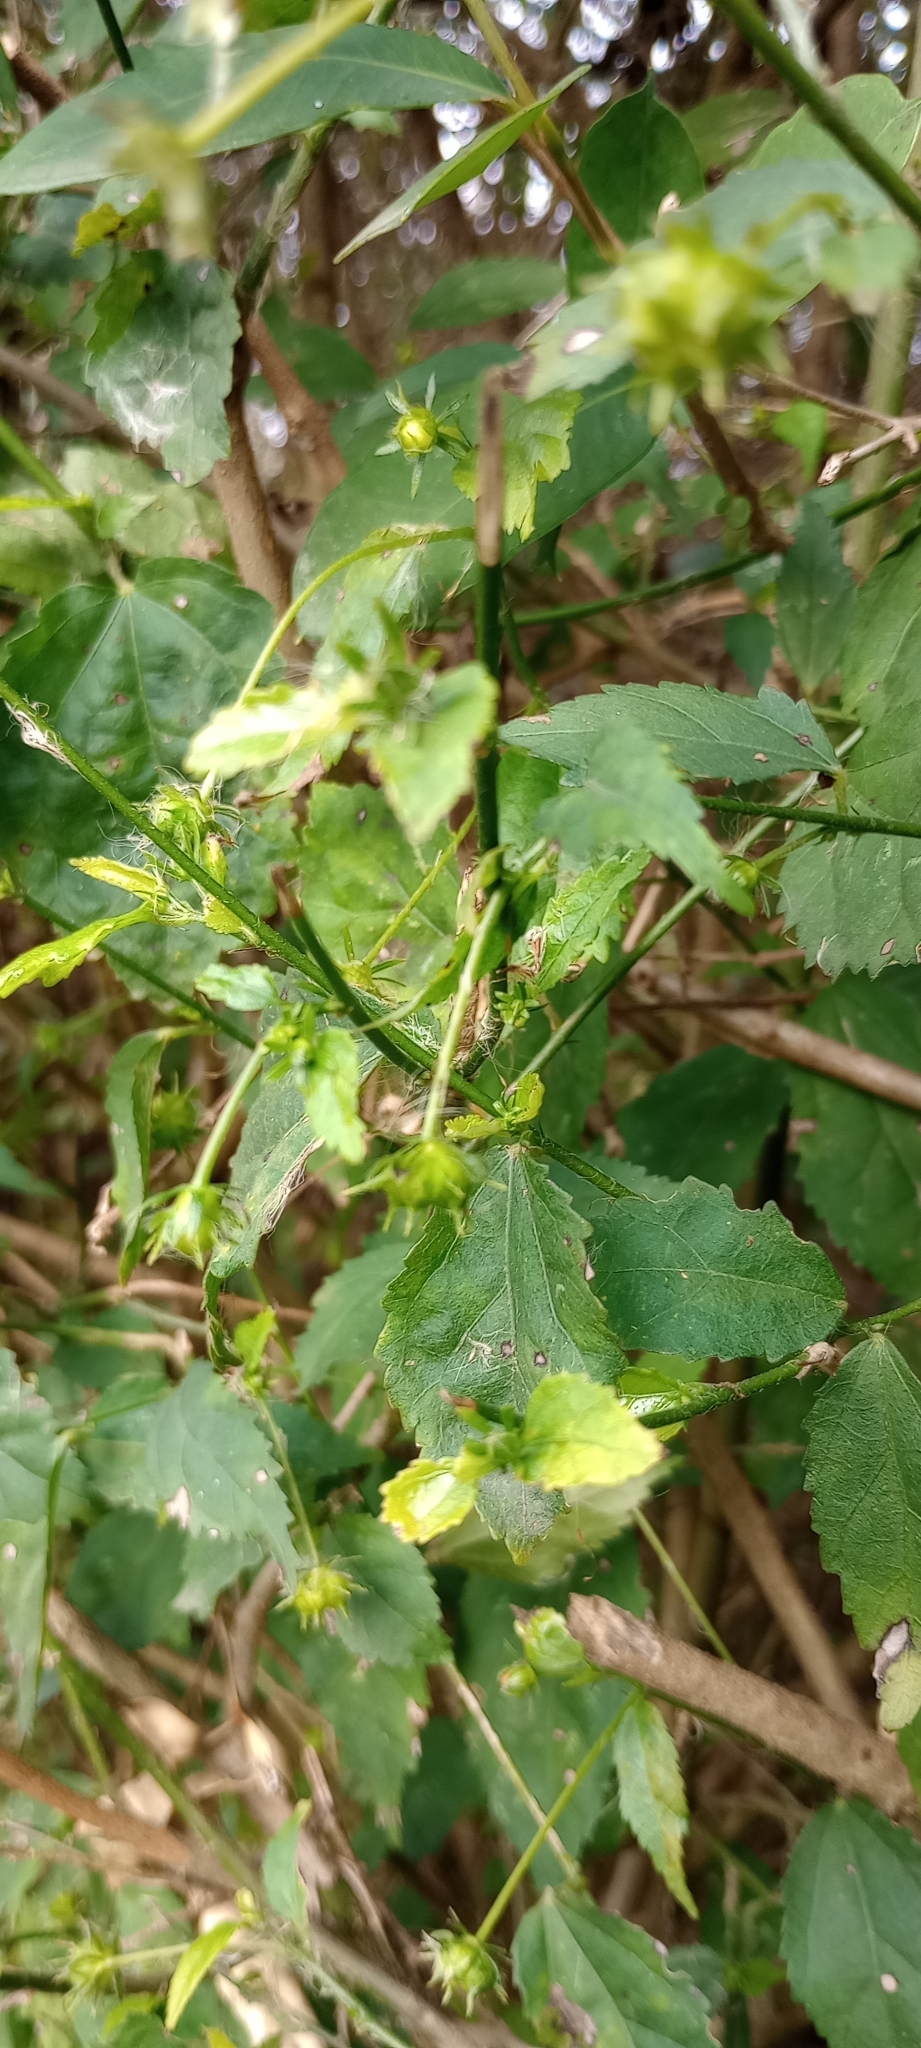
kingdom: Plantae
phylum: Tracheophyta
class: Magnoliopsida
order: Malvales
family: Malvaceae
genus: Pavonia
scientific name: Pavonia sepium
